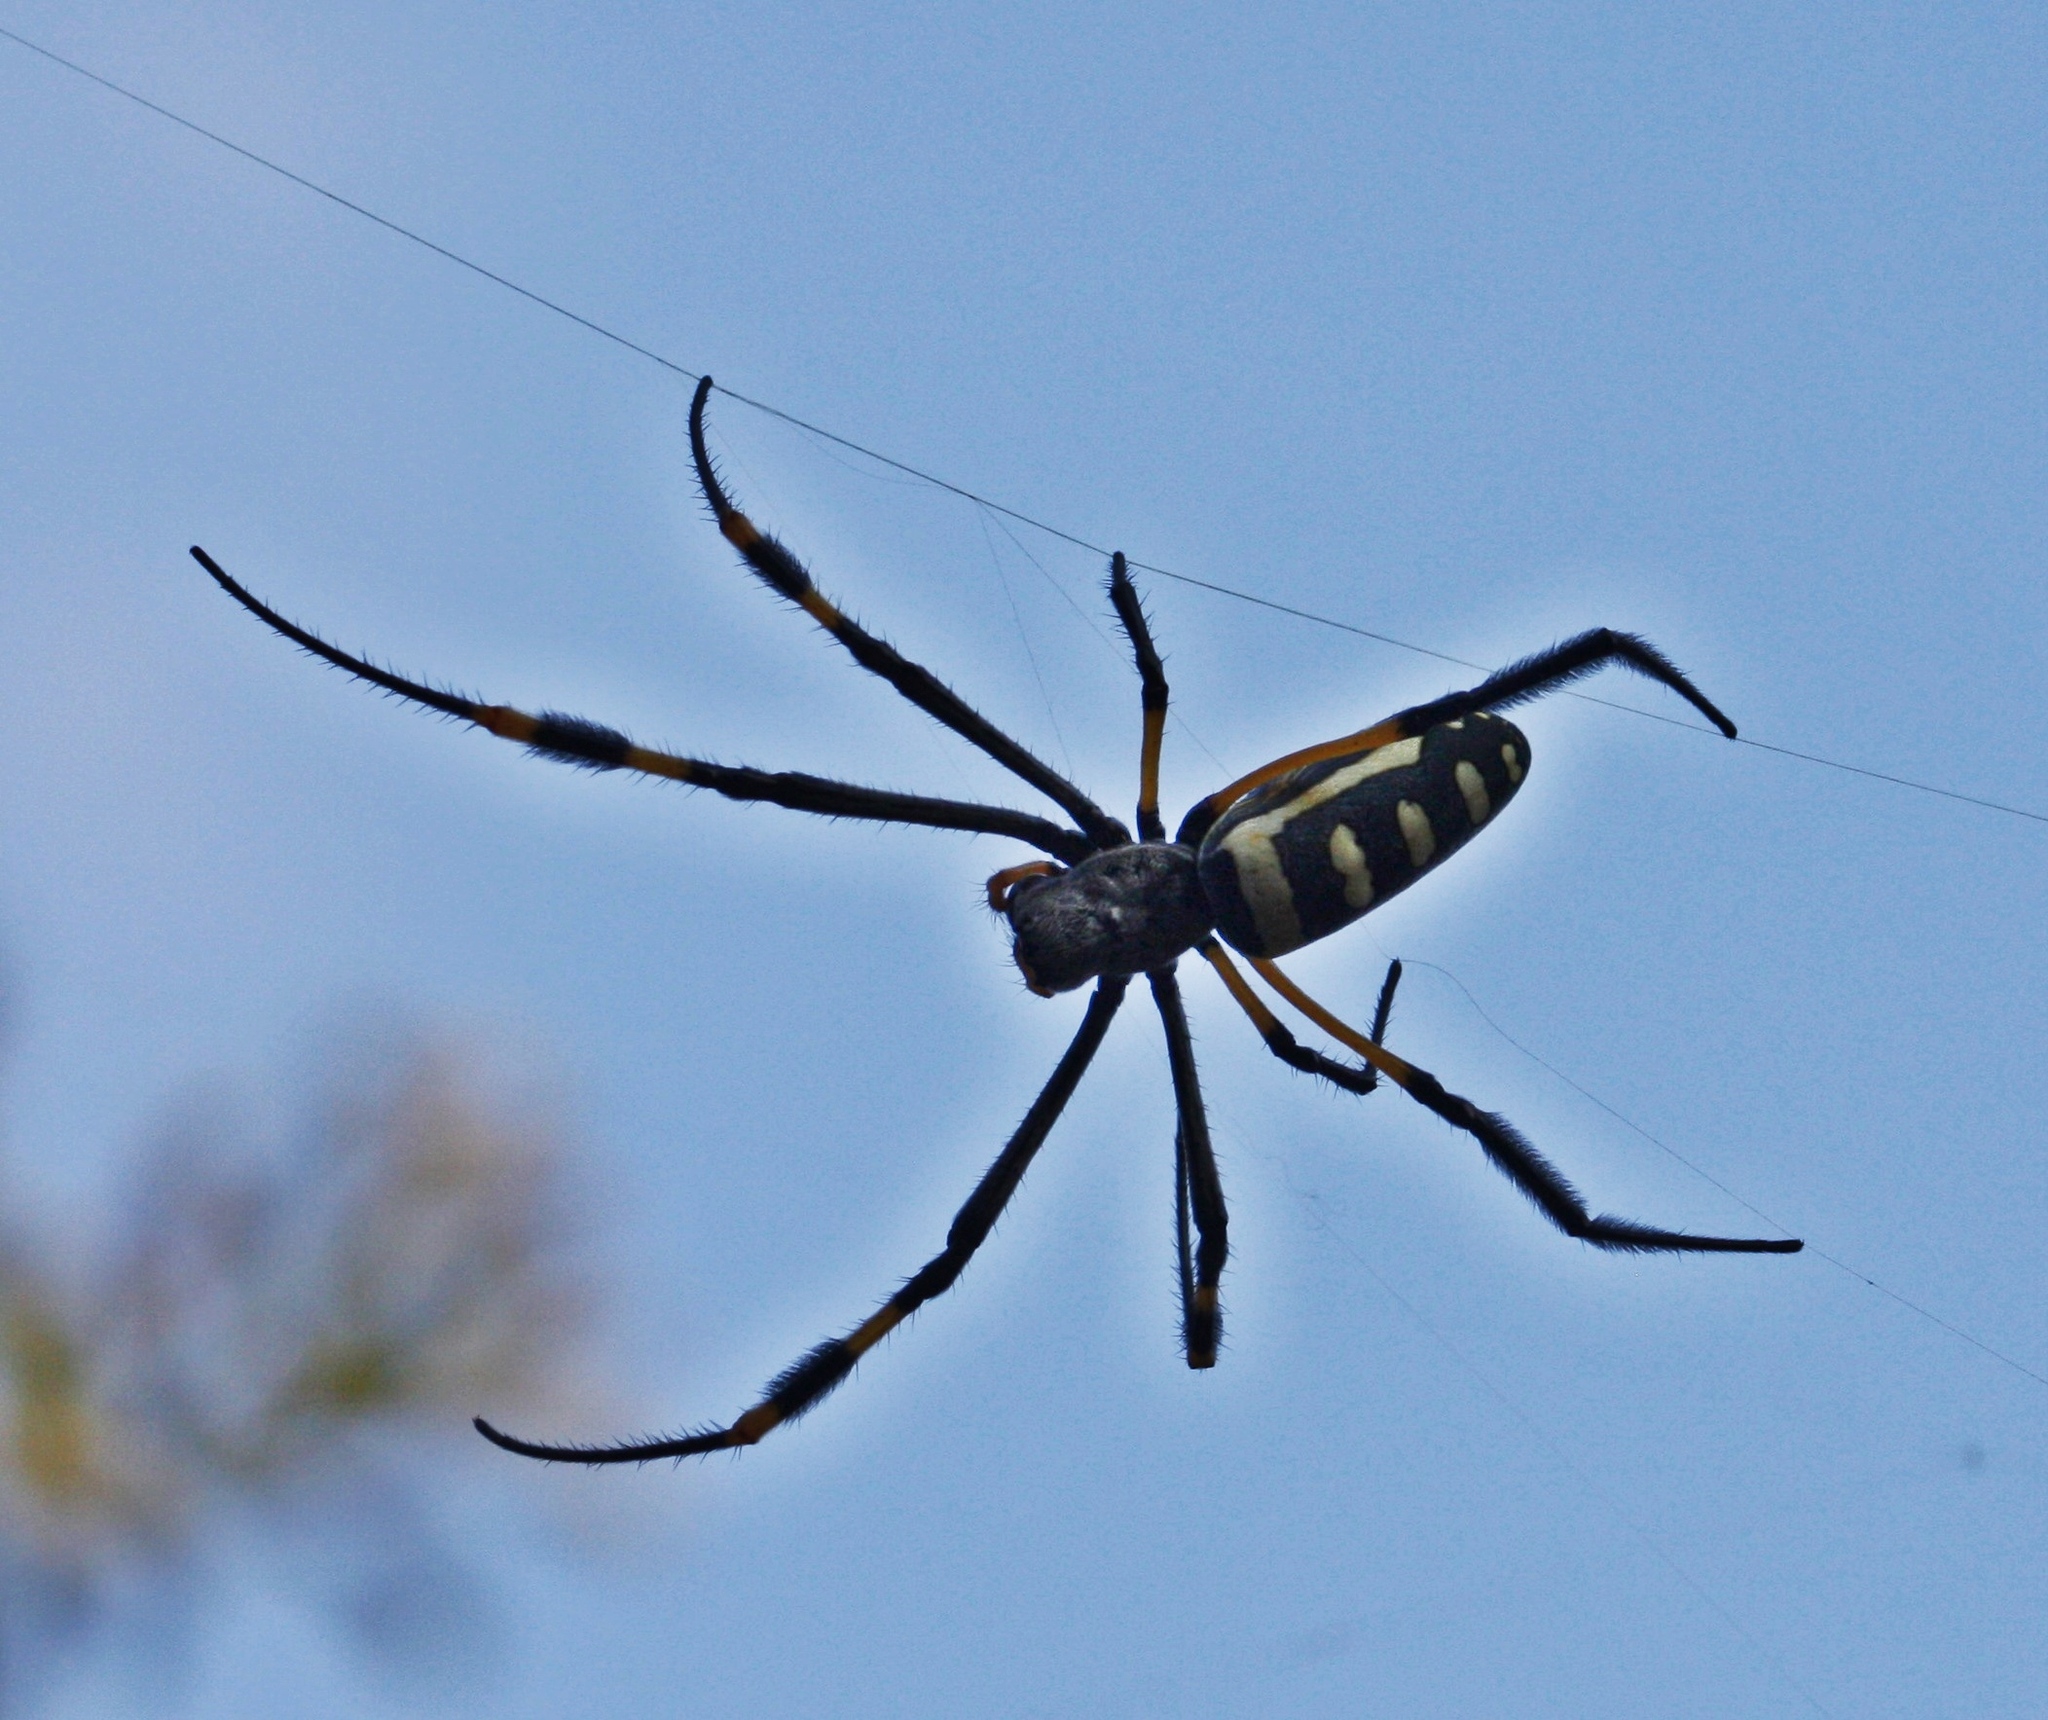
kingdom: Animalia
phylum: Arthropoda
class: Arachnida
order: Araneae
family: Araneidae
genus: Trichonephila
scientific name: Trichonephila senegalensis
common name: Banded golden orb weaver
